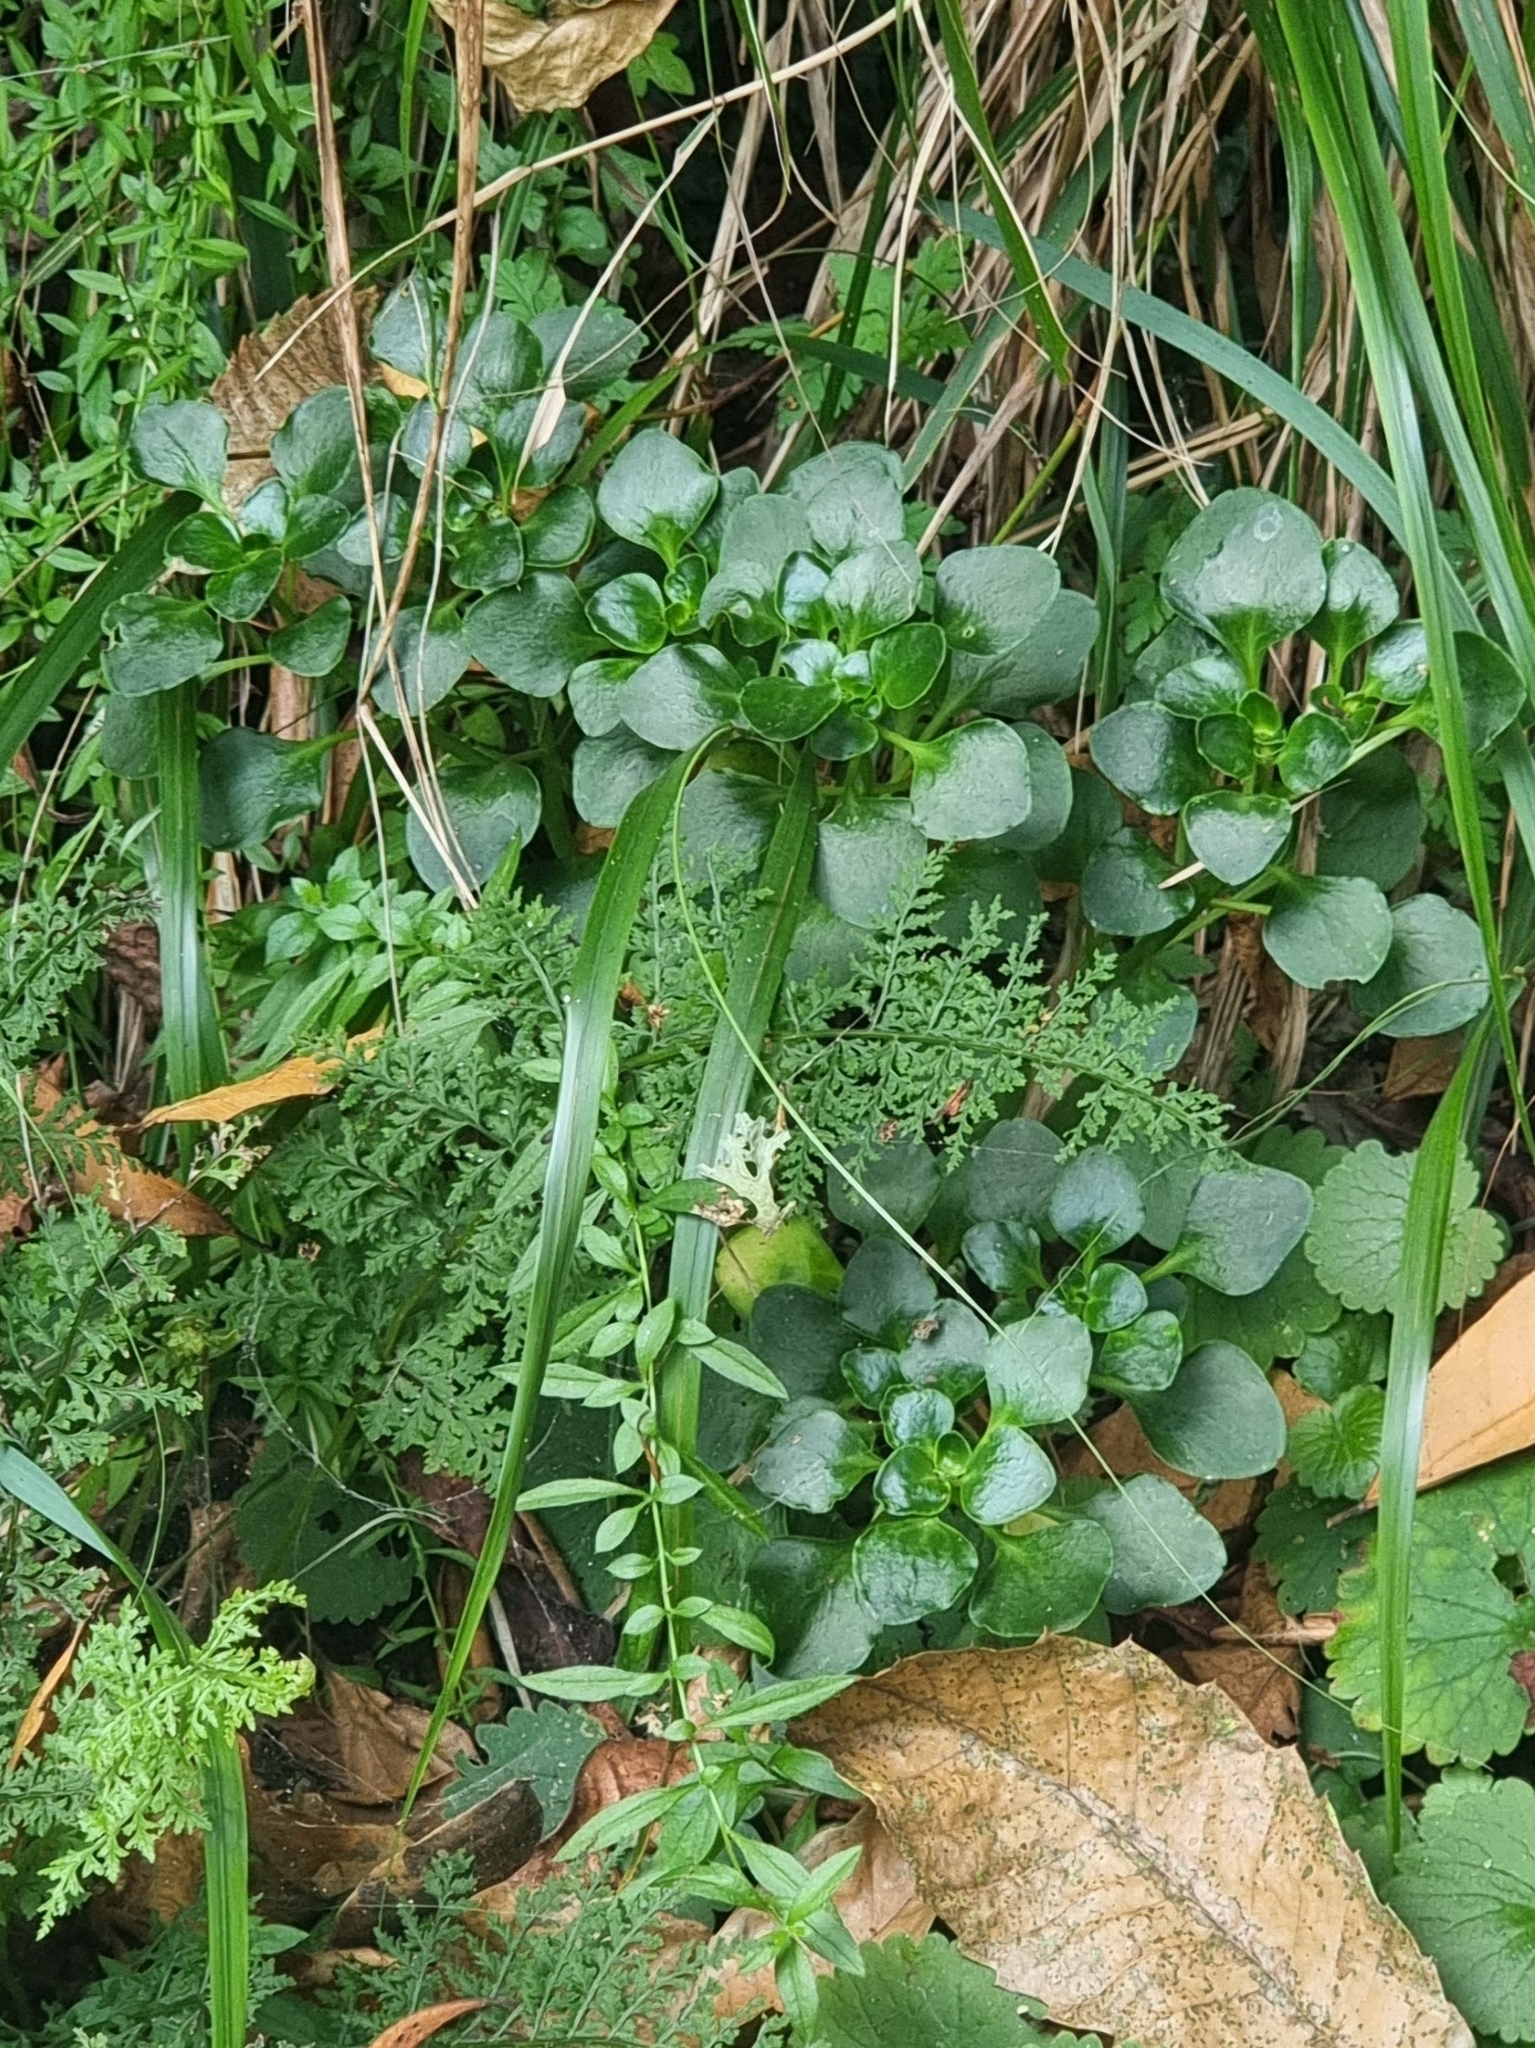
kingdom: Plantae
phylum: Tracheophyta
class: Magnoliopsida
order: Saxifragales
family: Crassulaceae
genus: Aichryson
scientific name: Aichryson divaricatum
